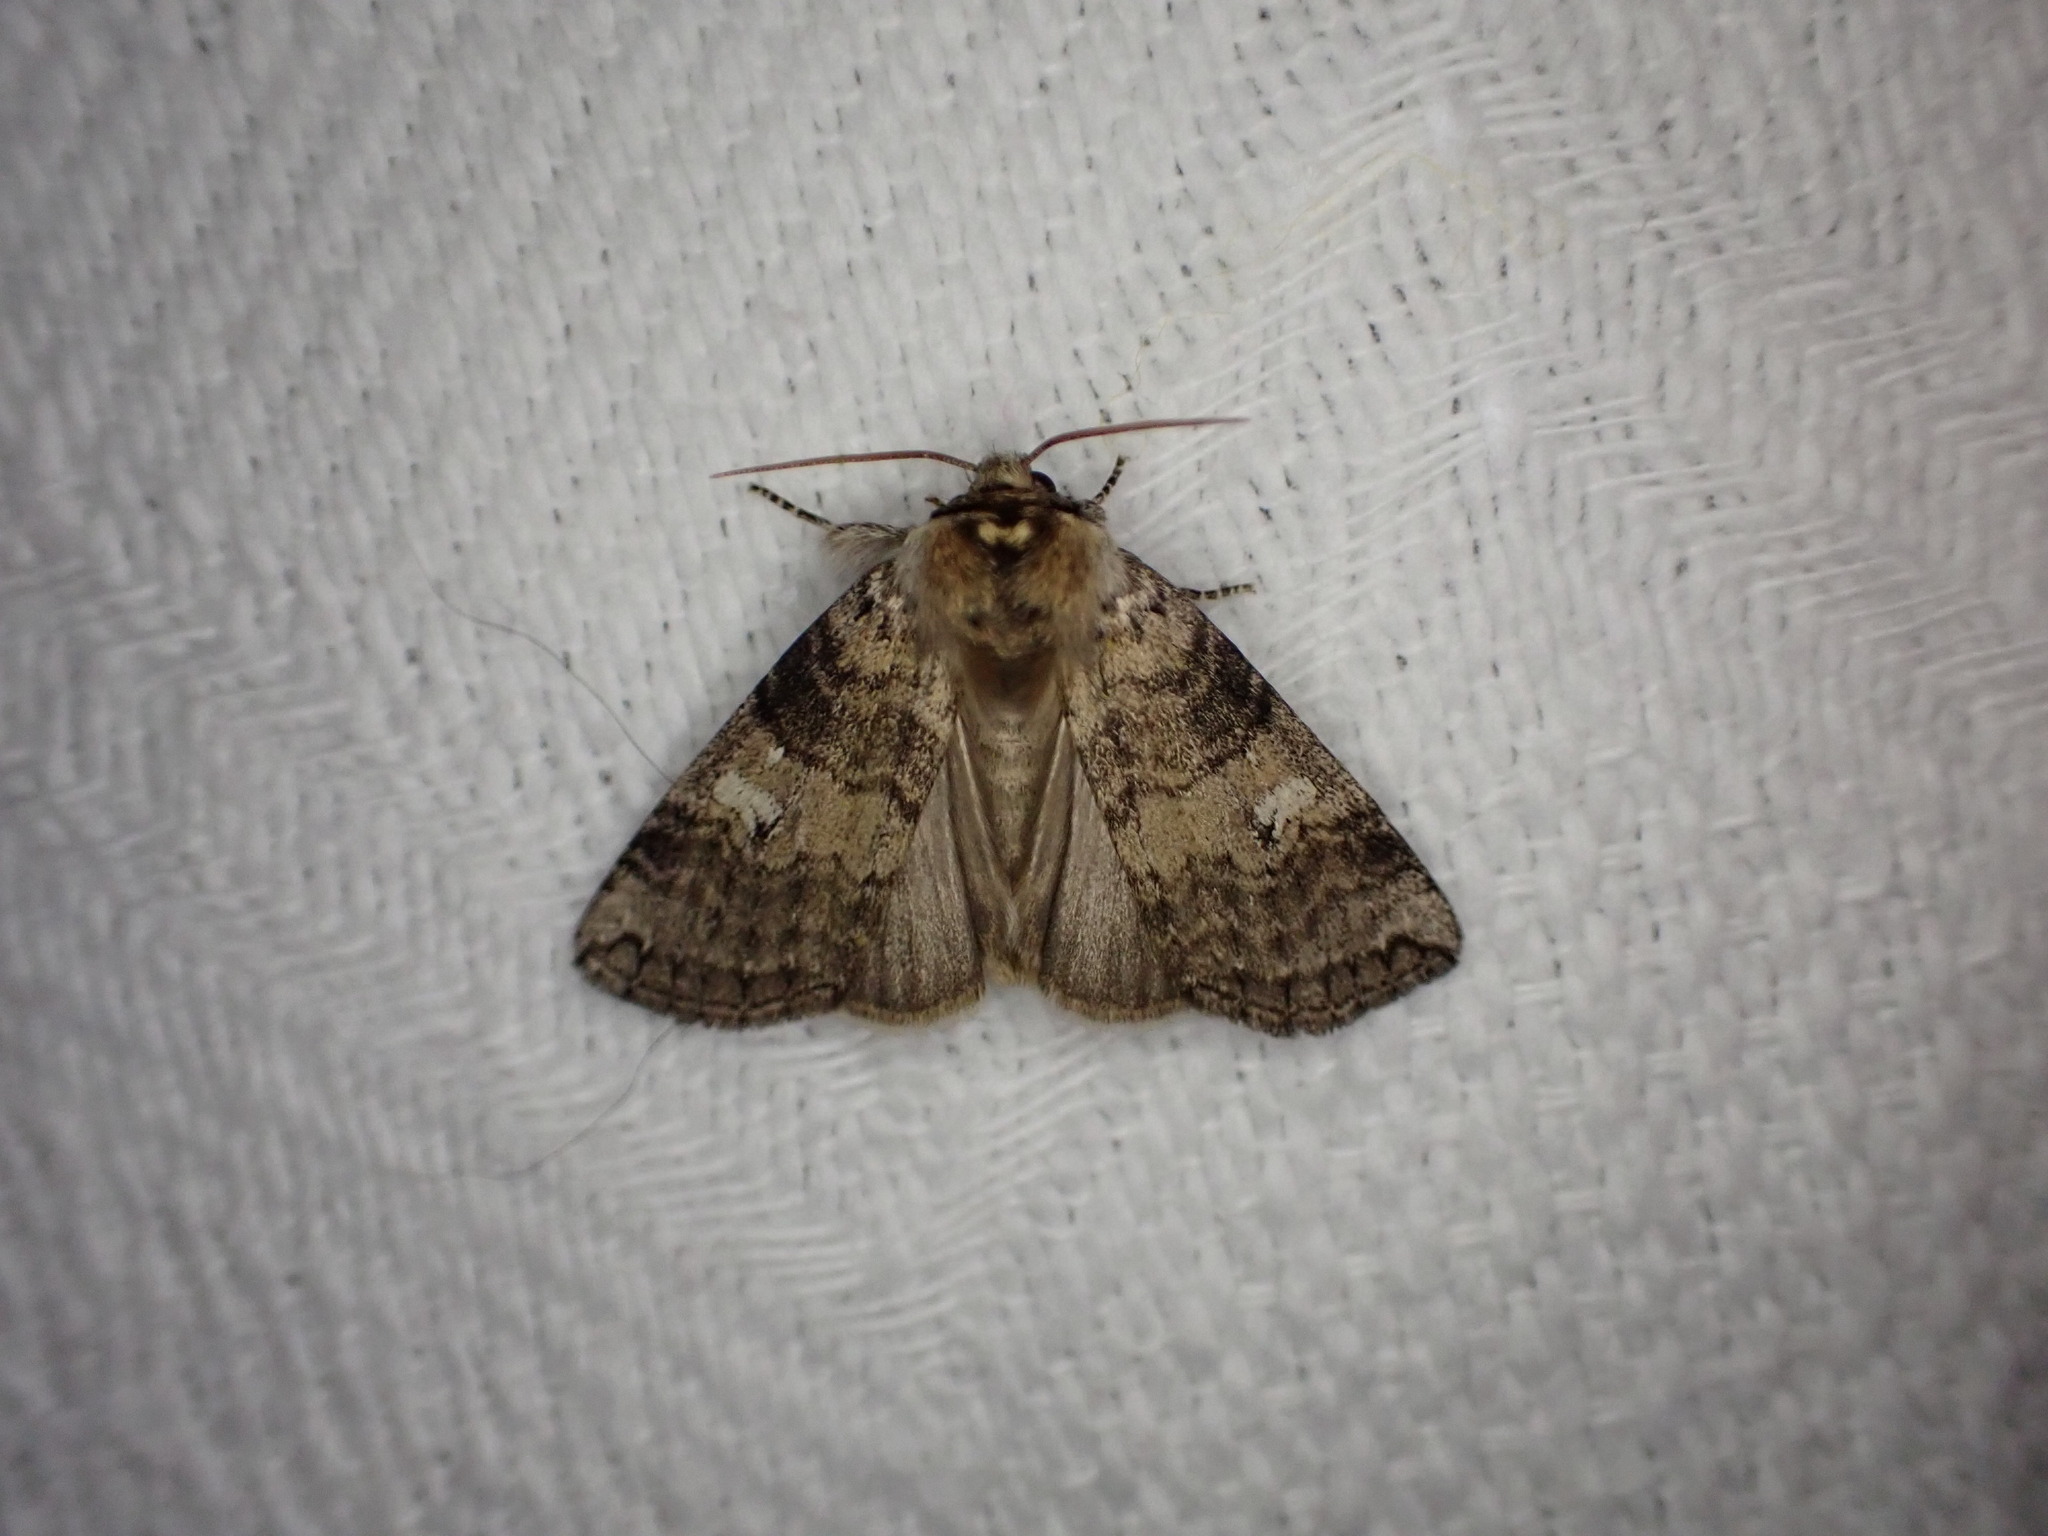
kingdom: Animalia
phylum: Arthropoda
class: Insecta
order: Lepidoptera
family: Drepanidae
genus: Tethea
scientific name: Tethea or
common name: Poplar lutestring
